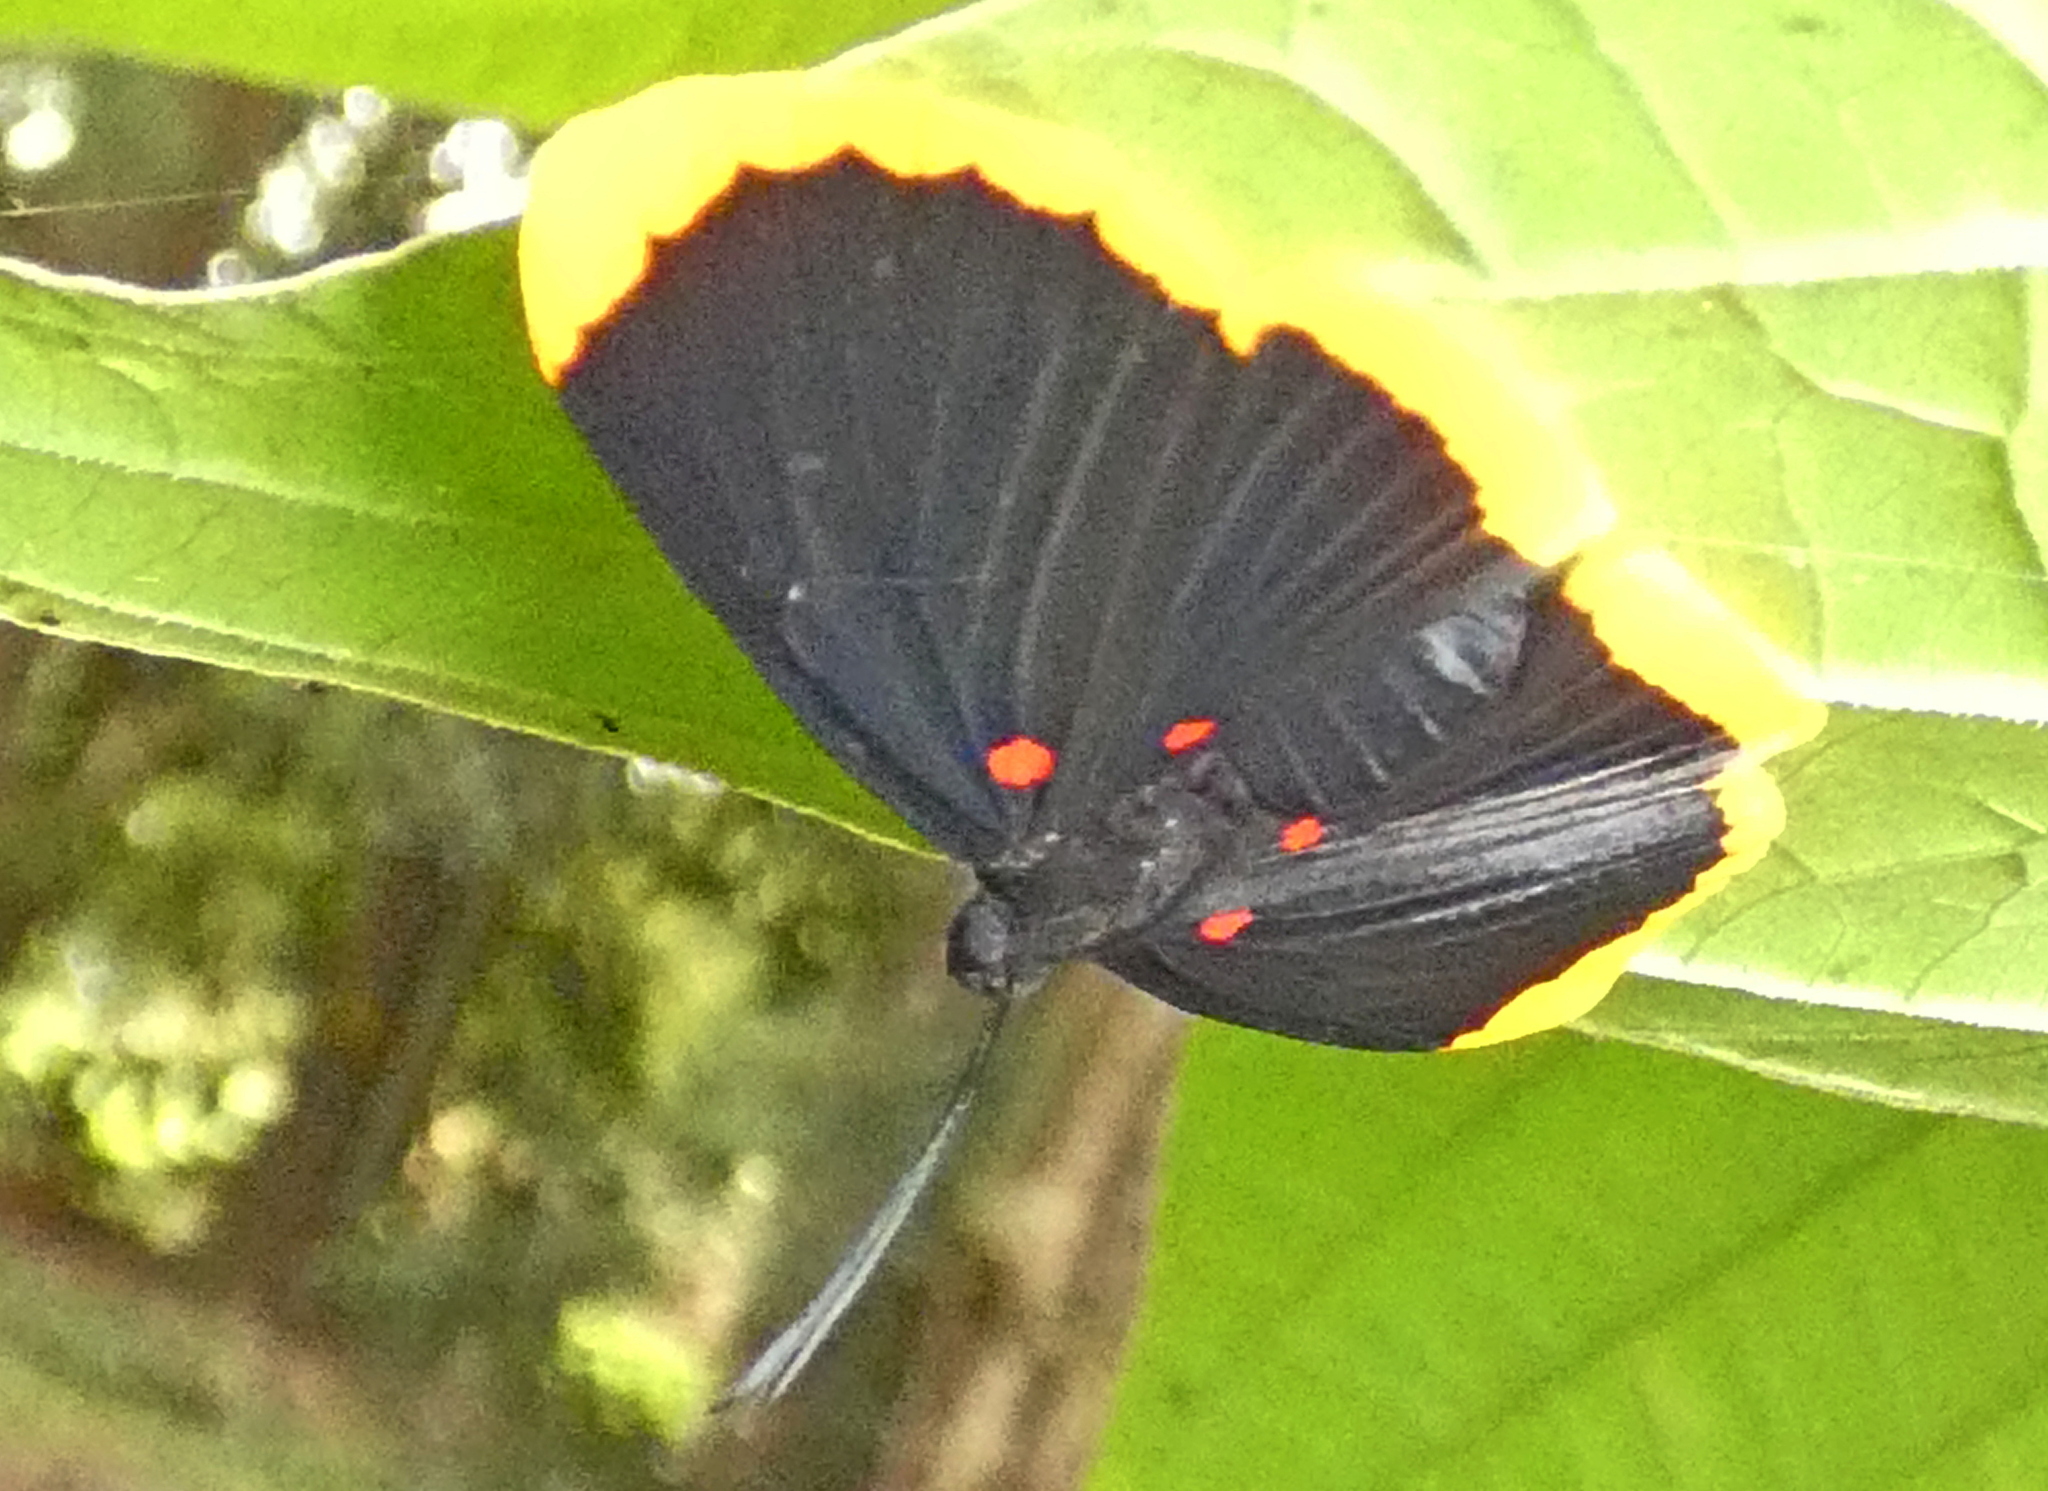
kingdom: Animalia
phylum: Arthropoda
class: Insecta
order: Lepidoptera
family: Lycaenidae
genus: Melanis
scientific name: Melanis smithiae
